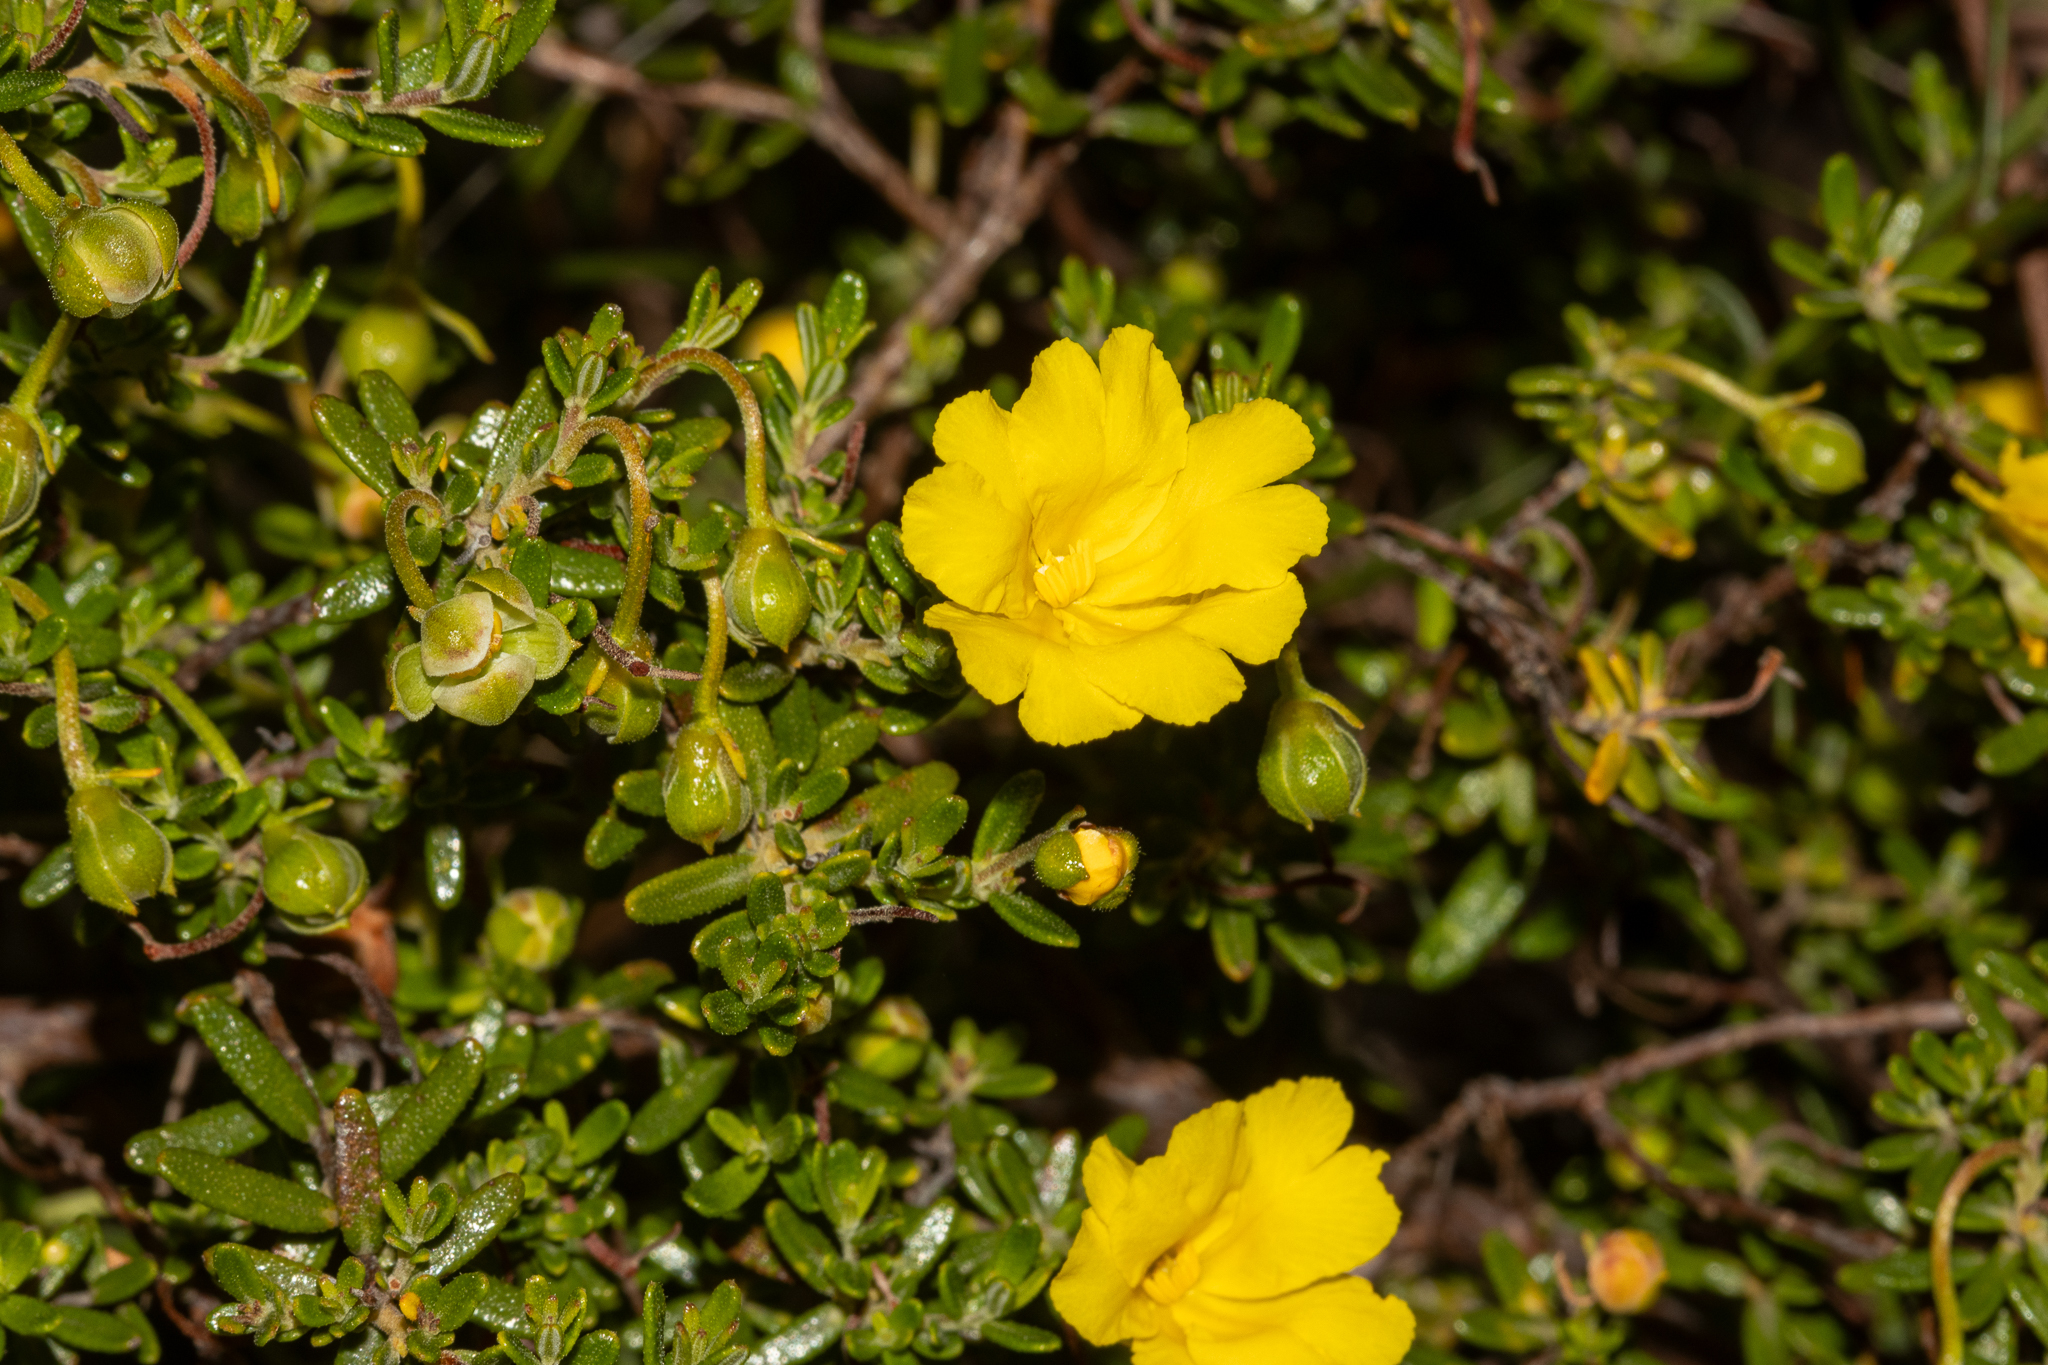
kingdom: Plantae
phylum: Tracheophyta
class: Magnoliopsida
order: Dilleniales
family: Dilleniaceae
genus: Hibbertia
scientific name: Hibbertia hypericoides
